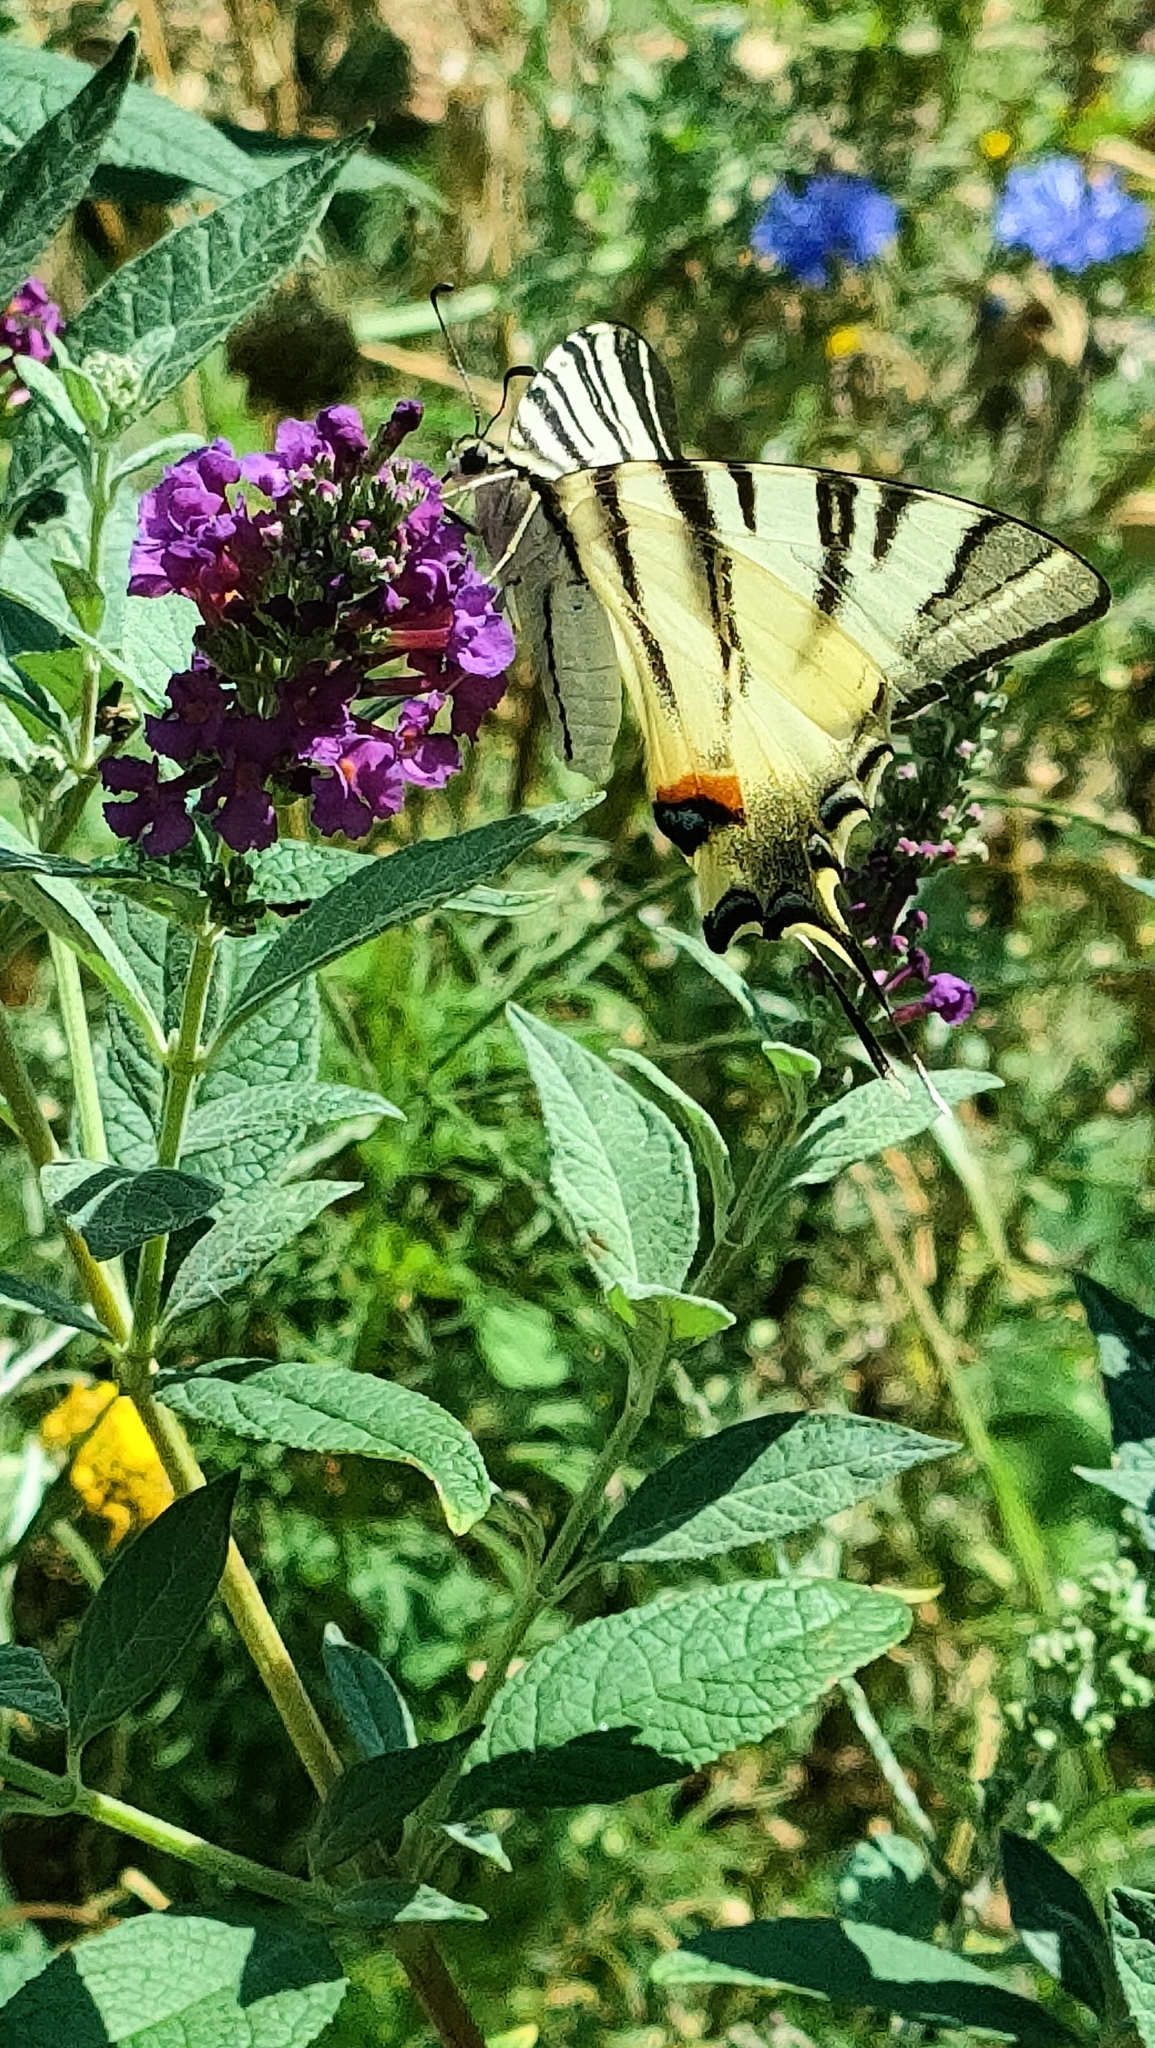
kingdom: Animalia
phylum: Arthropoda
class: Insecta
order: Lepidoptera
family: Papilionidae
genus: Iphiclides
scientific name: Iphiclides podalirius
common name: Scarce swallowtail
